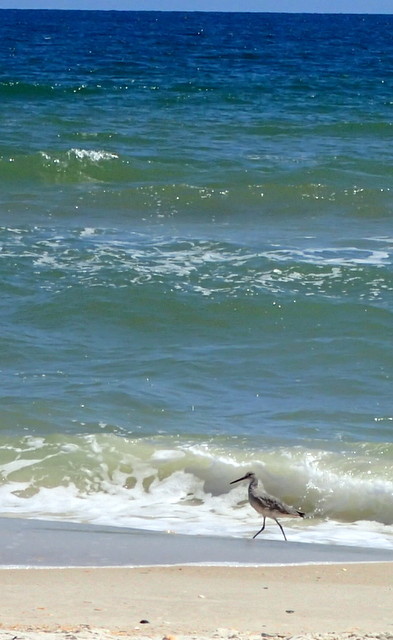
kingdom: Animalia
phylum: Chordata
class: Aves
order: Charadriiformes
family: Scolopacidae
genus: Tringa
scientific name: Tringa semipalmata
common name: Willet
